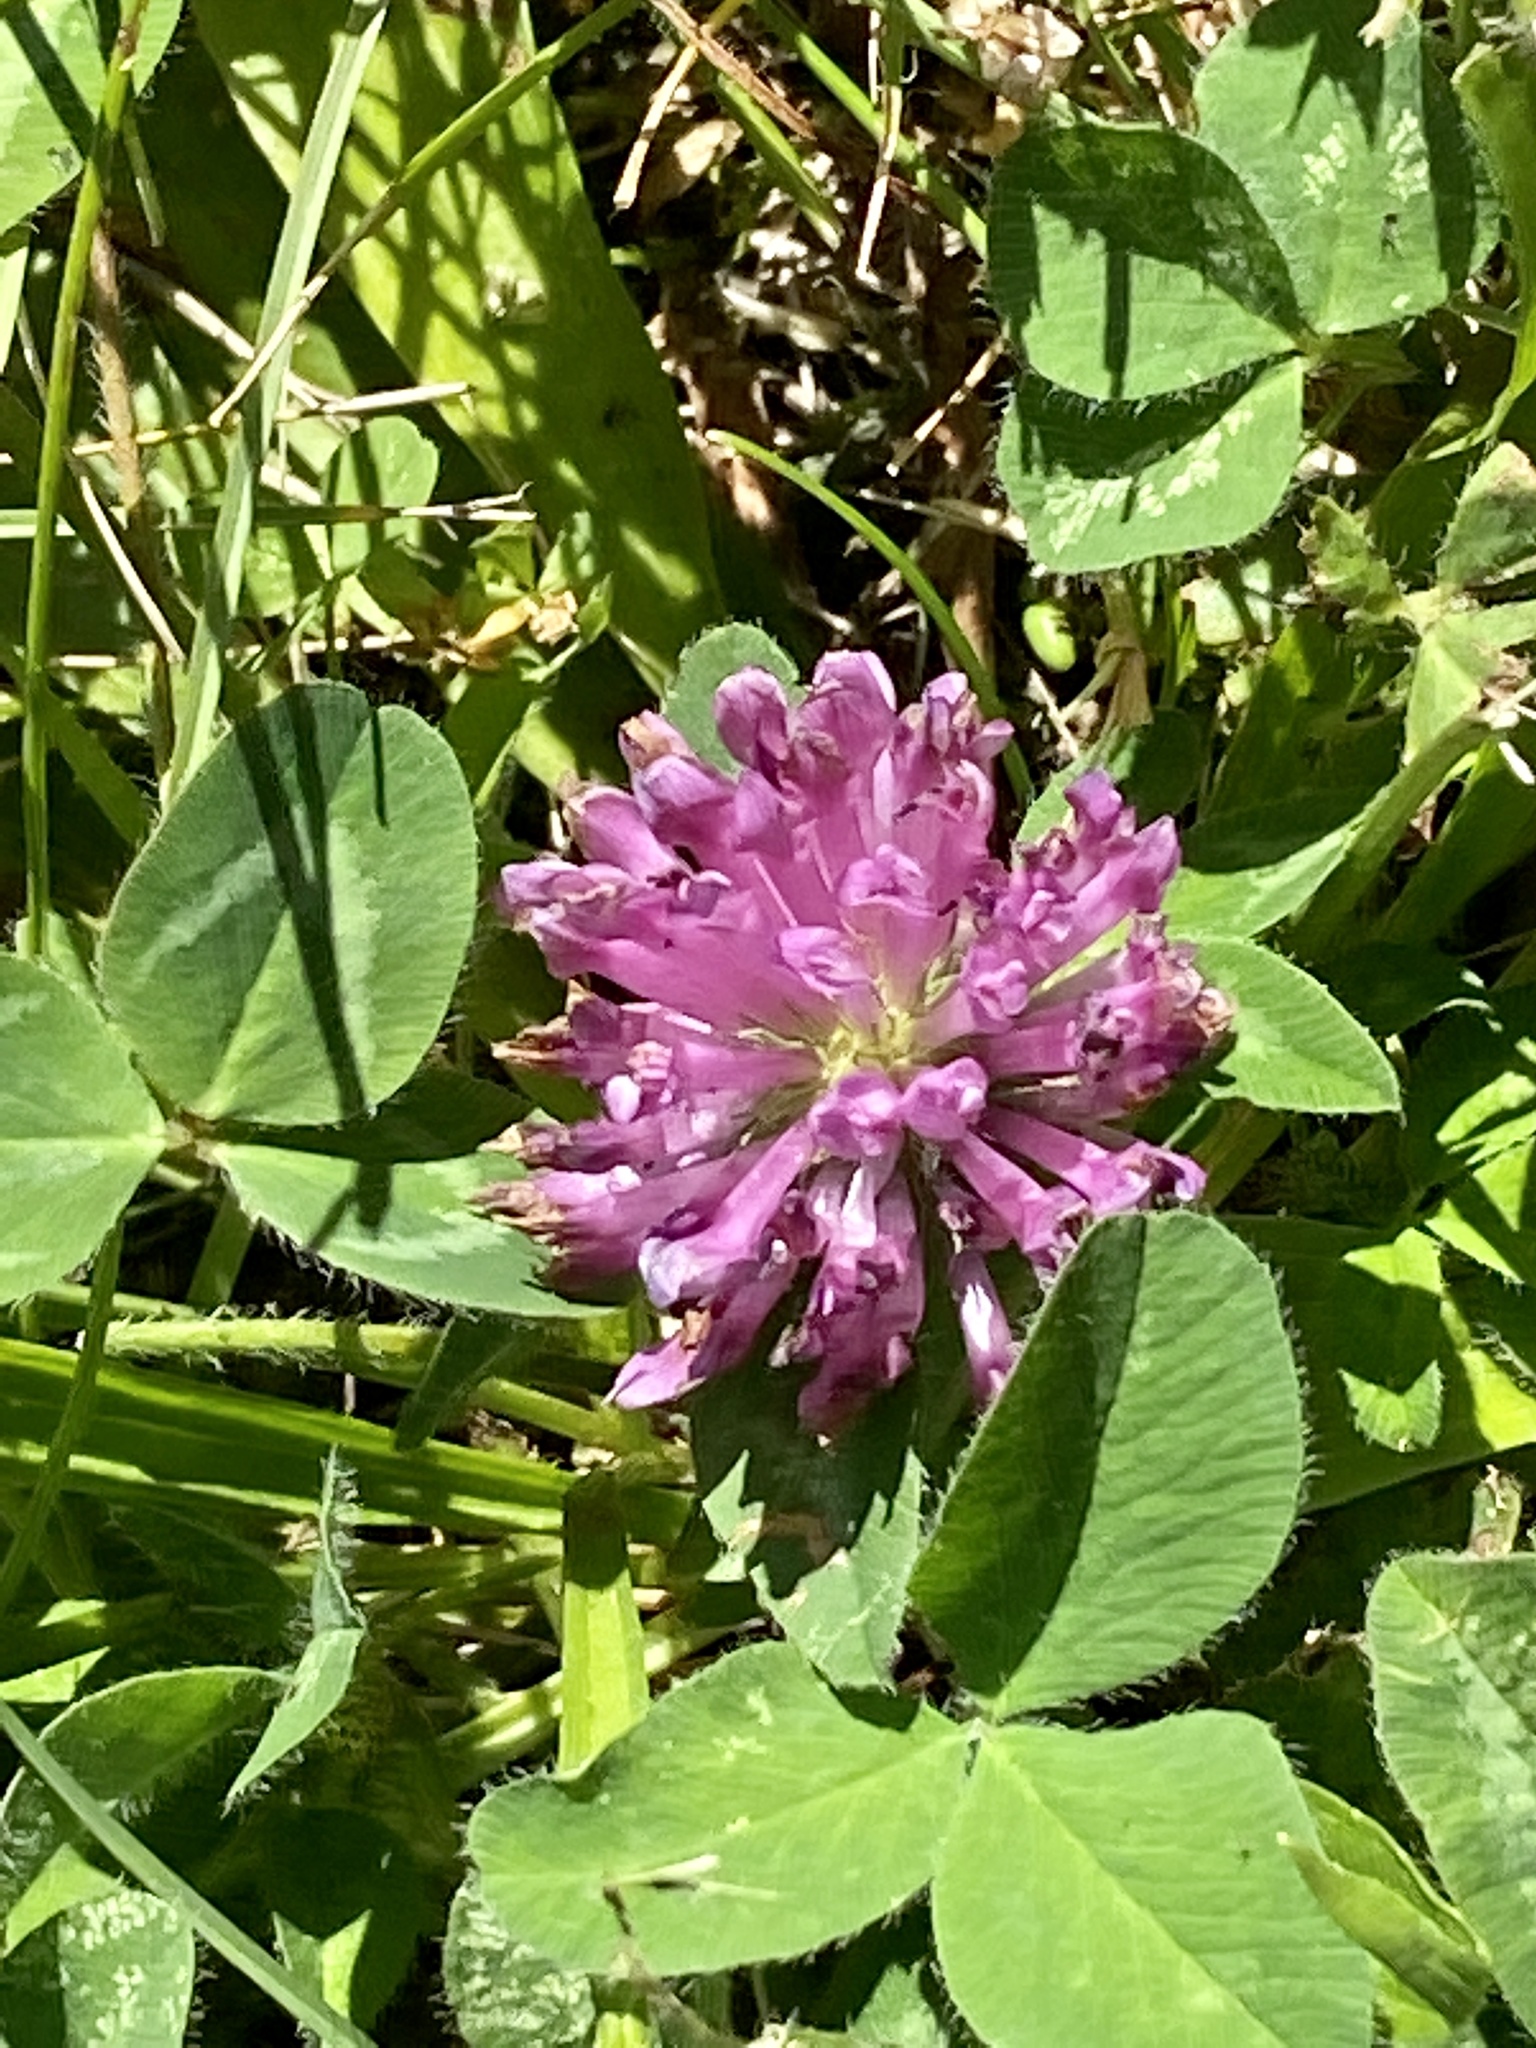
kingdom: Plantae
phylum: Tracheophyta
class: Magnoliopsida
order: Fabales
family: Fabaceae
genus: Trifolium
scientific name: Trifolium pratense
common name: Red clover
